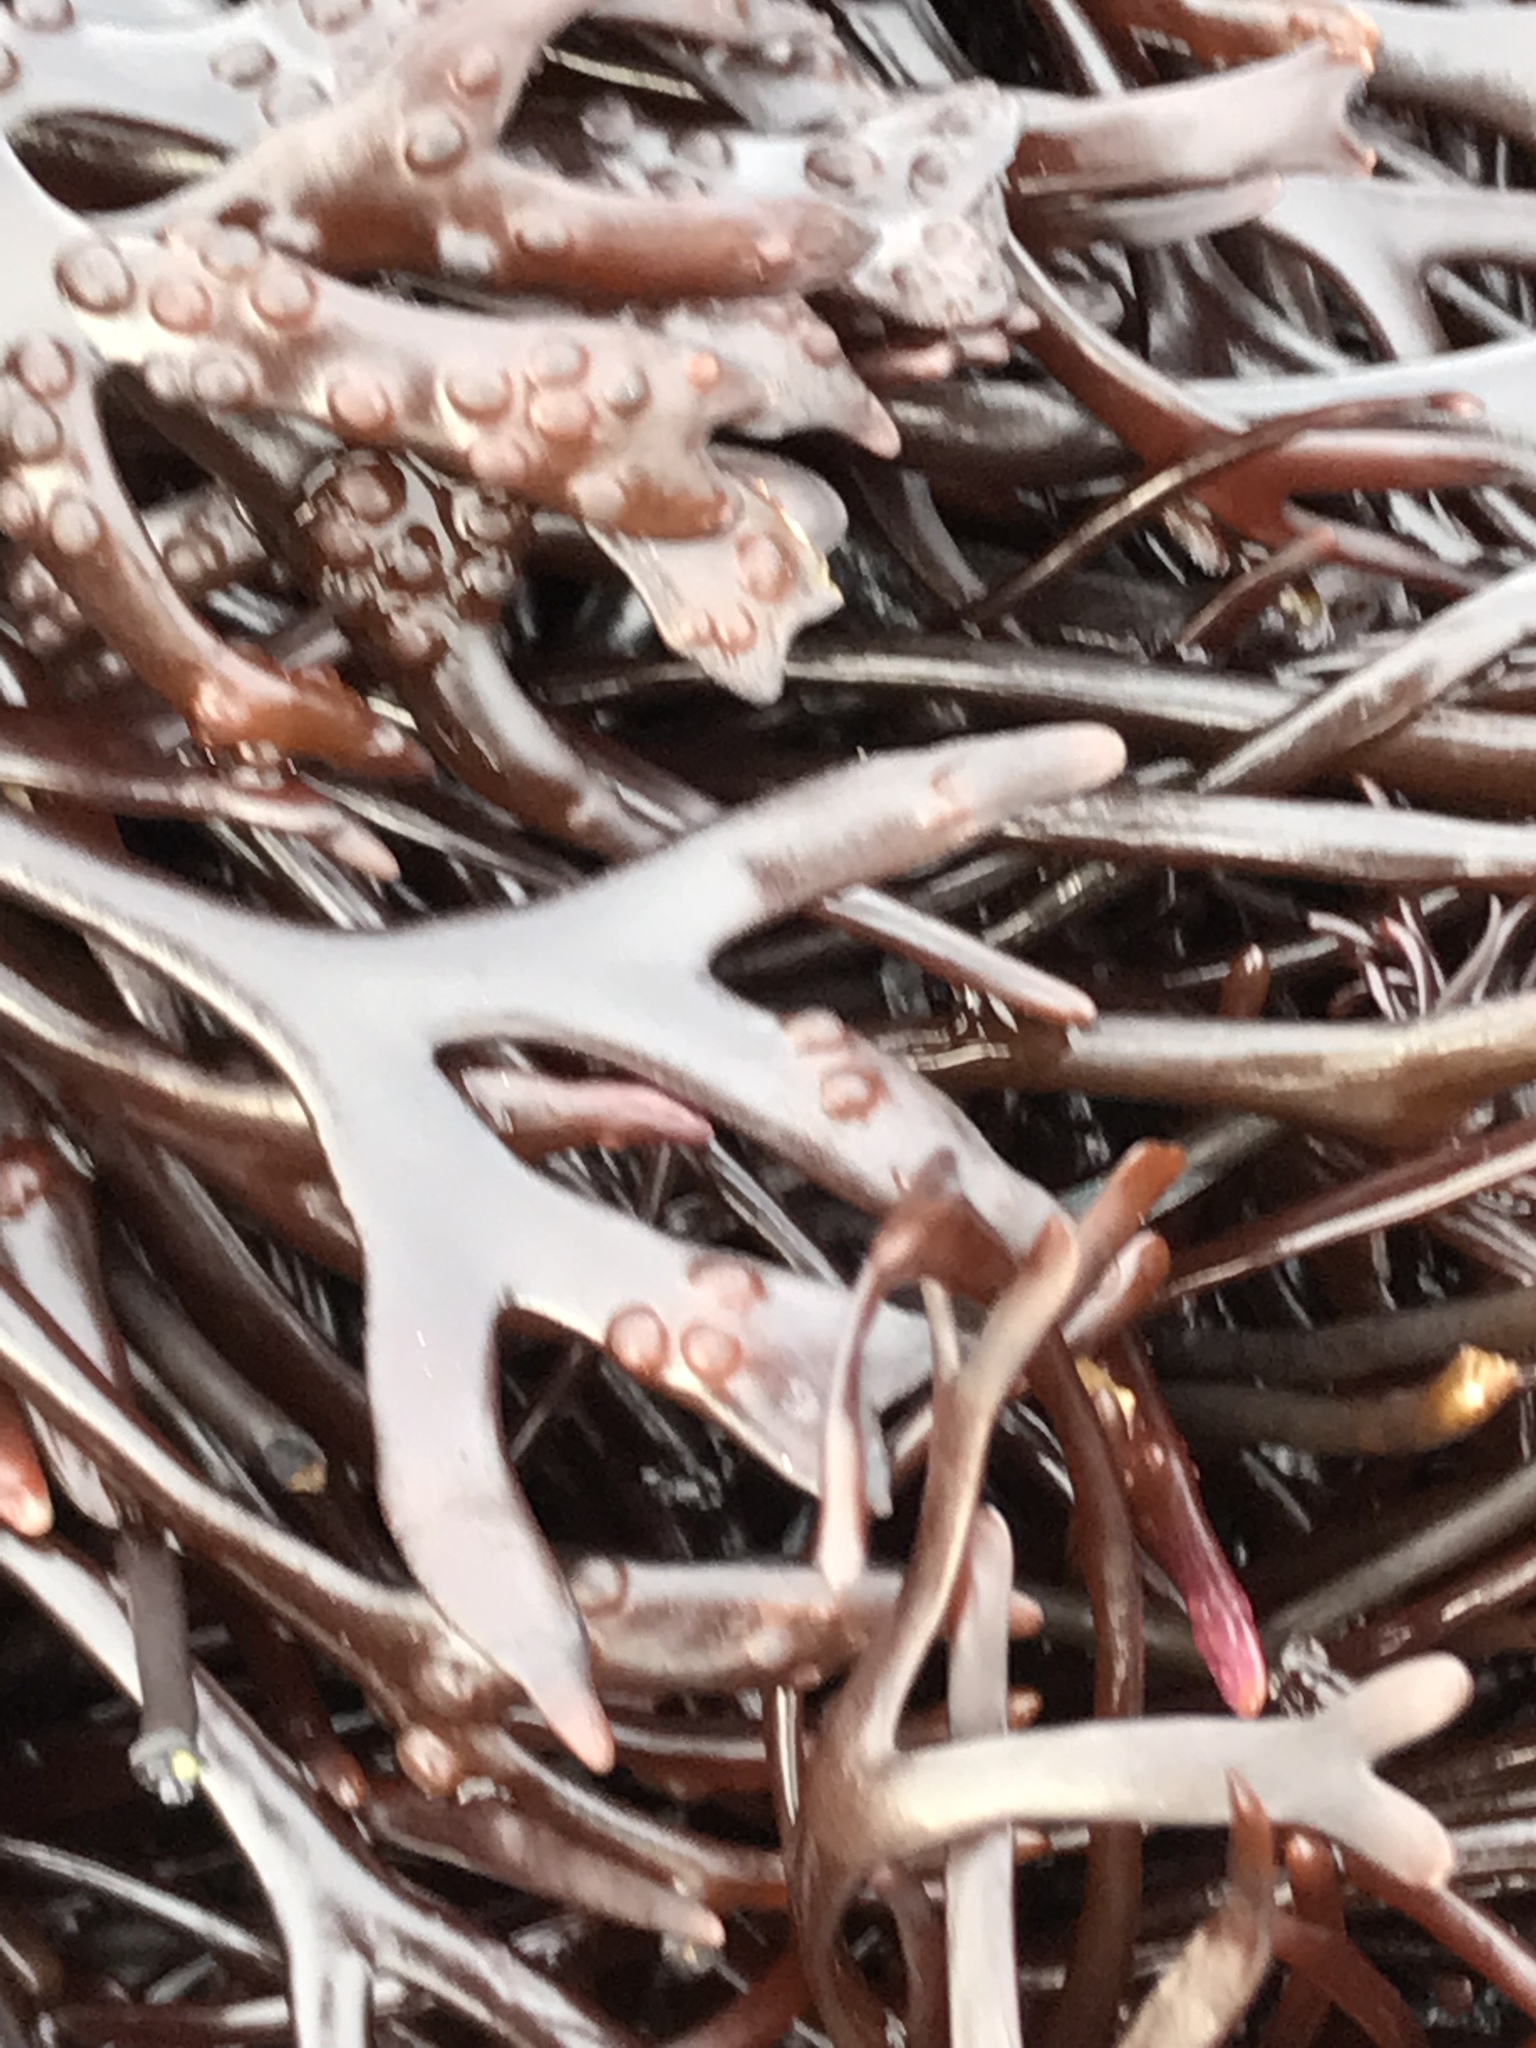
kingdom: Plantae
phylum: Rhodophyta
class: Florideophyceae
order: Gigartinales
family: Phyllophoraceae
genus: Ahnfeltiopsis
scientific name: Ahnfeltiopsis linearis
